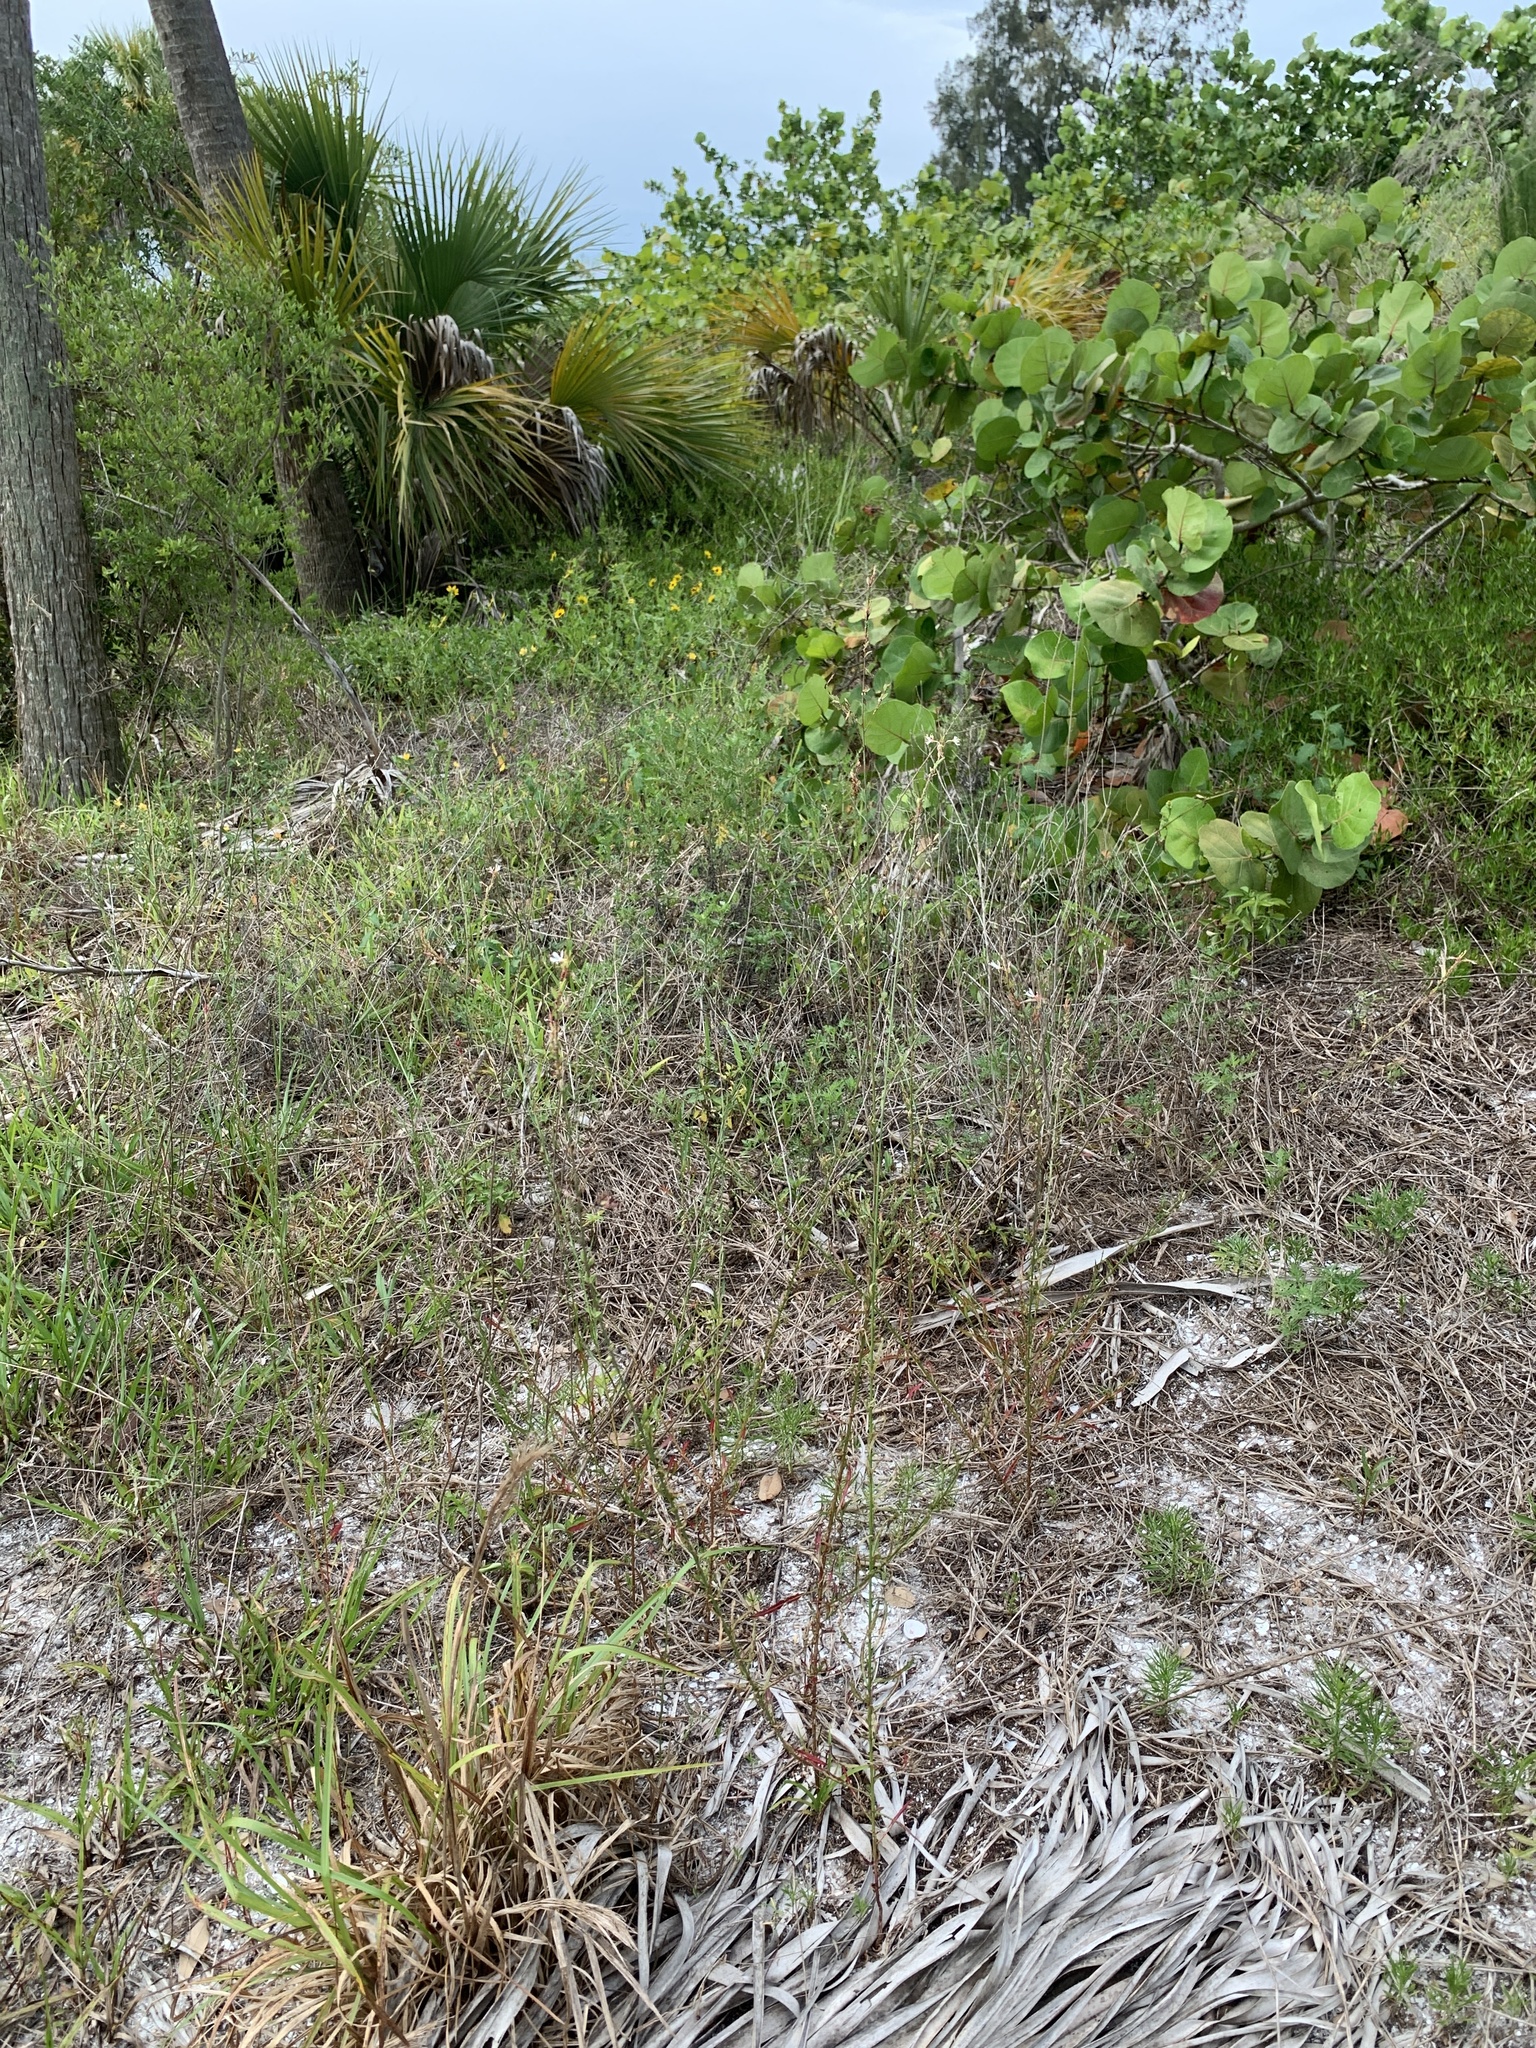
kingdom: Plantae
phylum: Tracheophyta
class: Magnoliopsida
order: Myrtales
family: Onagraceae
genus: Oenothera
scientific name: Oenothera simulans
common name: Southern beeblossom
